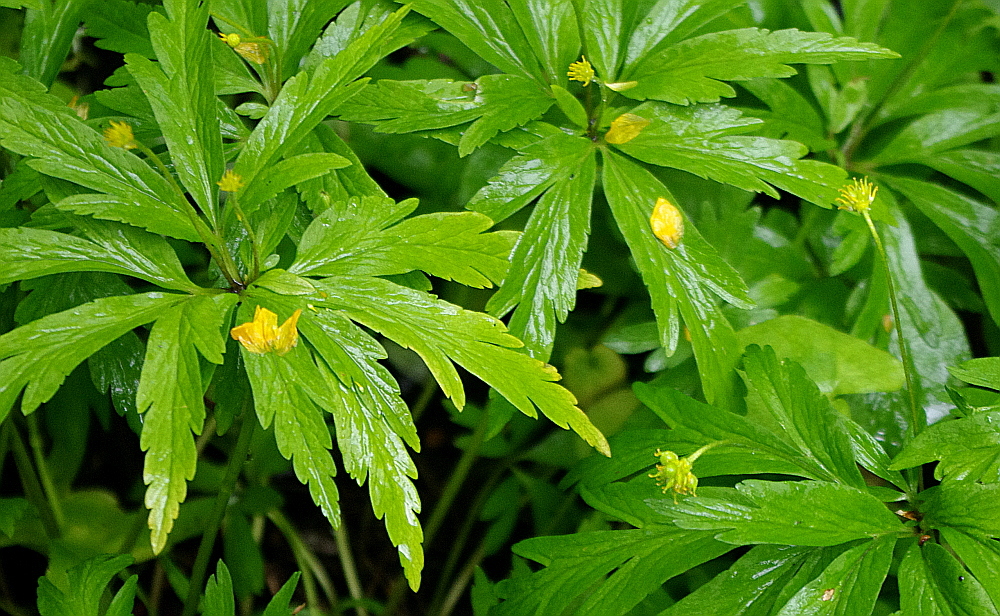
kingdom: Plantae
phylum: Tracheophyta
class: Magnoliopsida
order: Ranunculales
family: Ranunculaceae
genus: Anemone
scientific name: Anemone ranunculoides
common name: Yellow anemone
